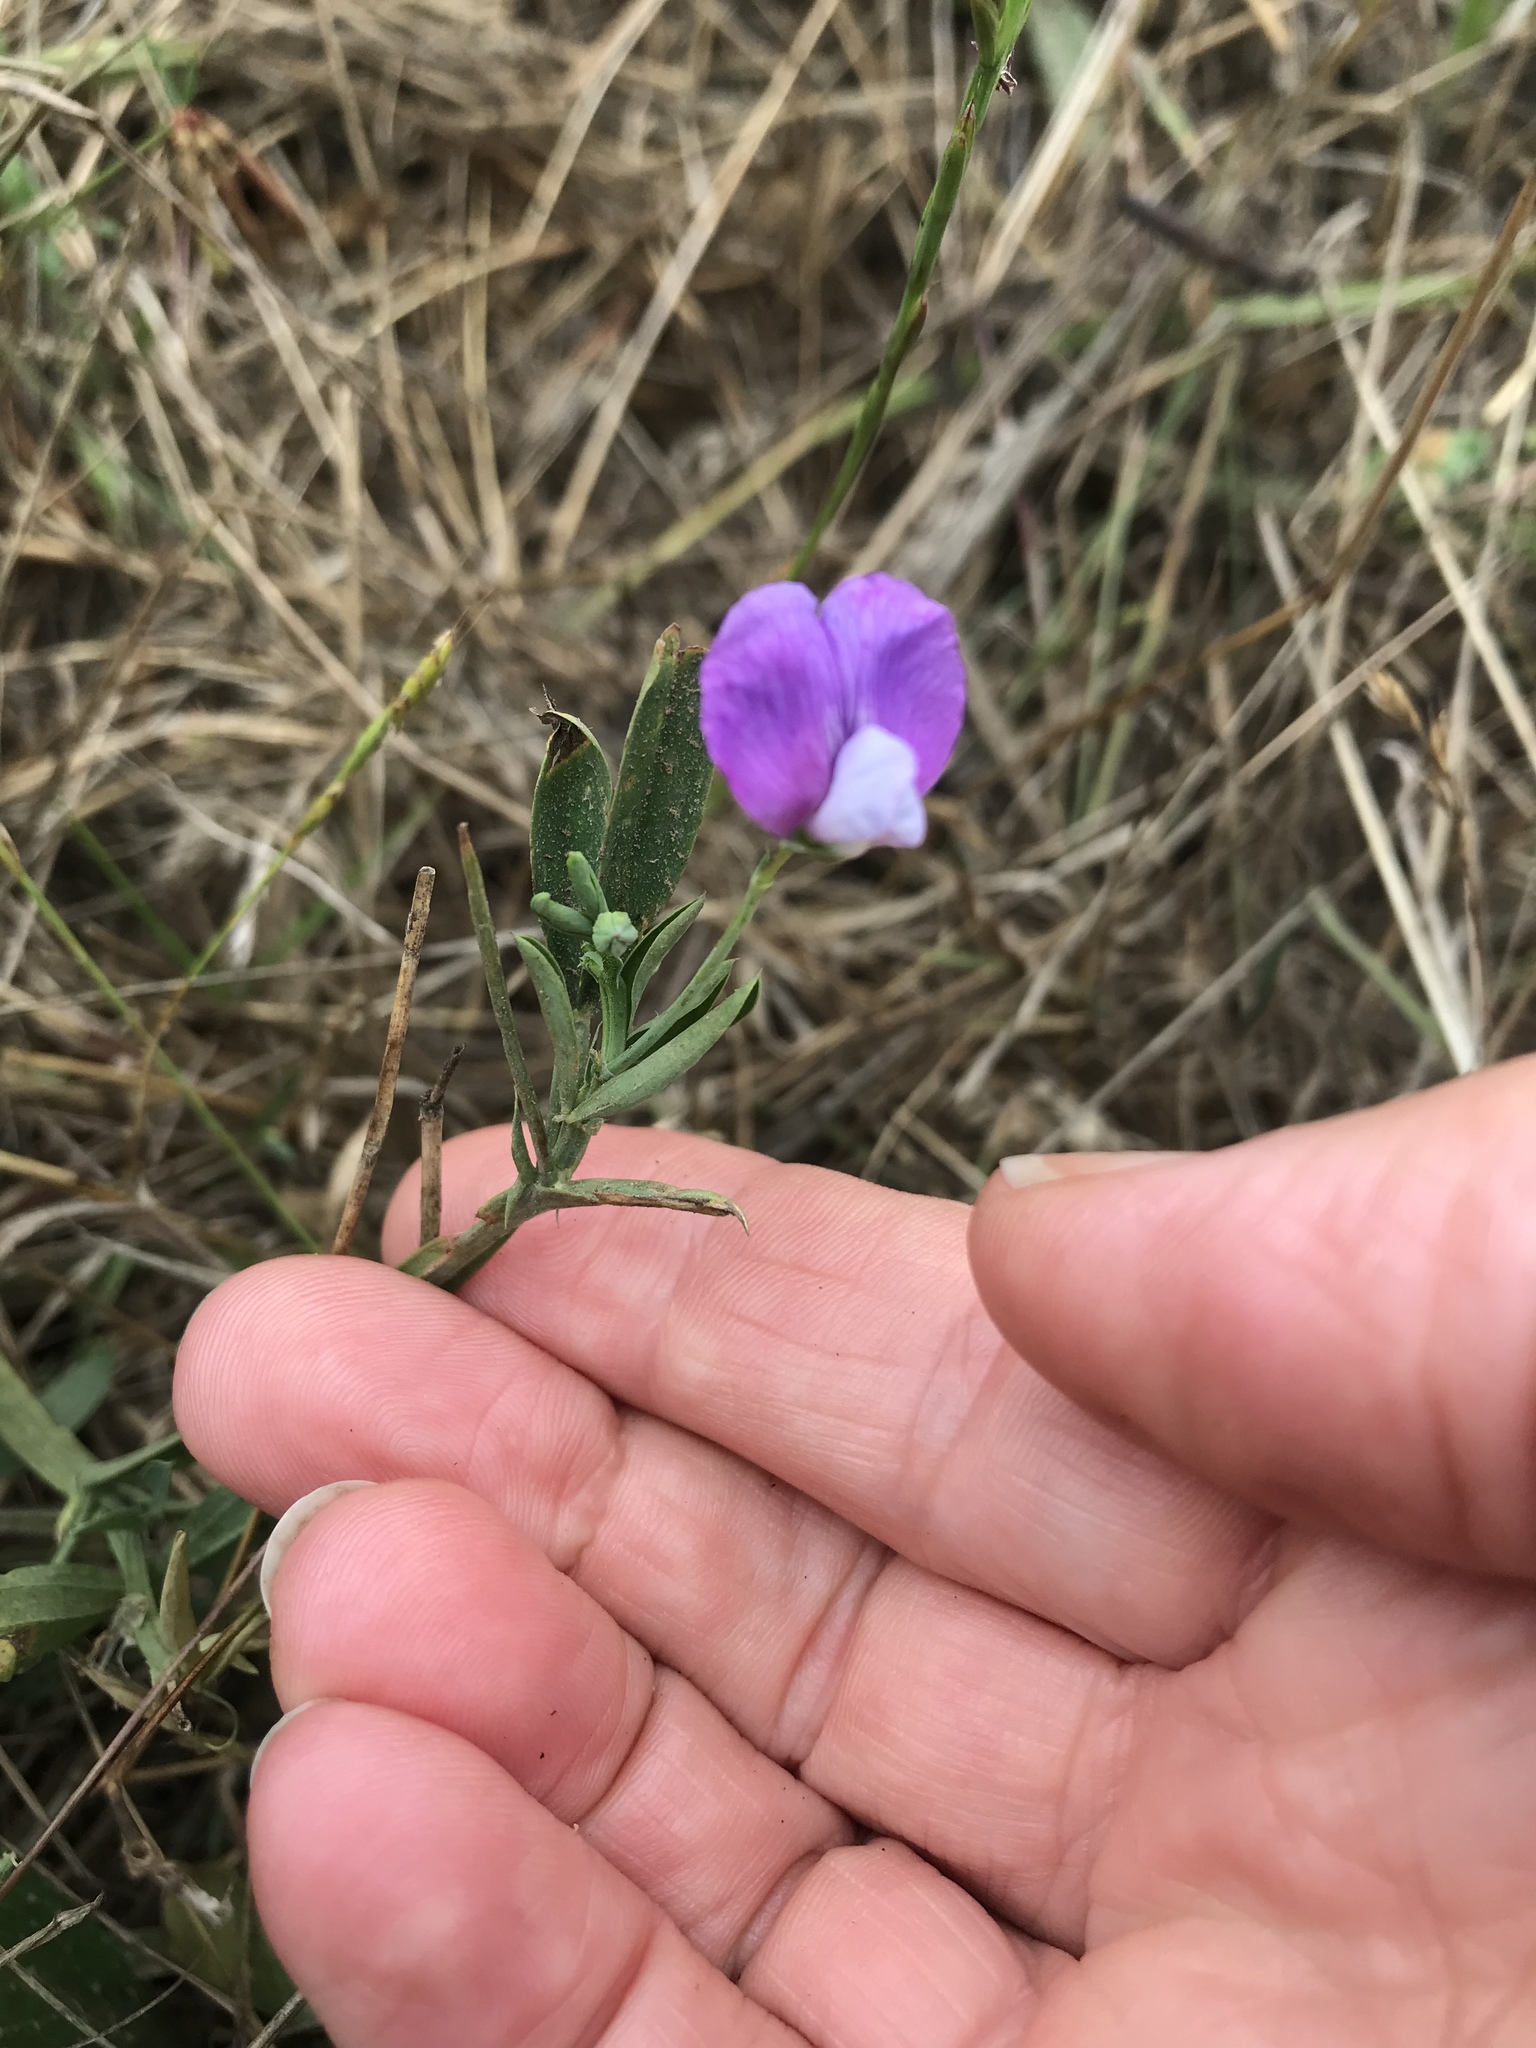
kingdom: Plantae
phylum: Tracheophyta
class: Magnoliopsida
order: Fabales
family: Fabaceae
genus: Lathyrus
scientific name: Lathyrus latifolius
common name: Perennial pea
